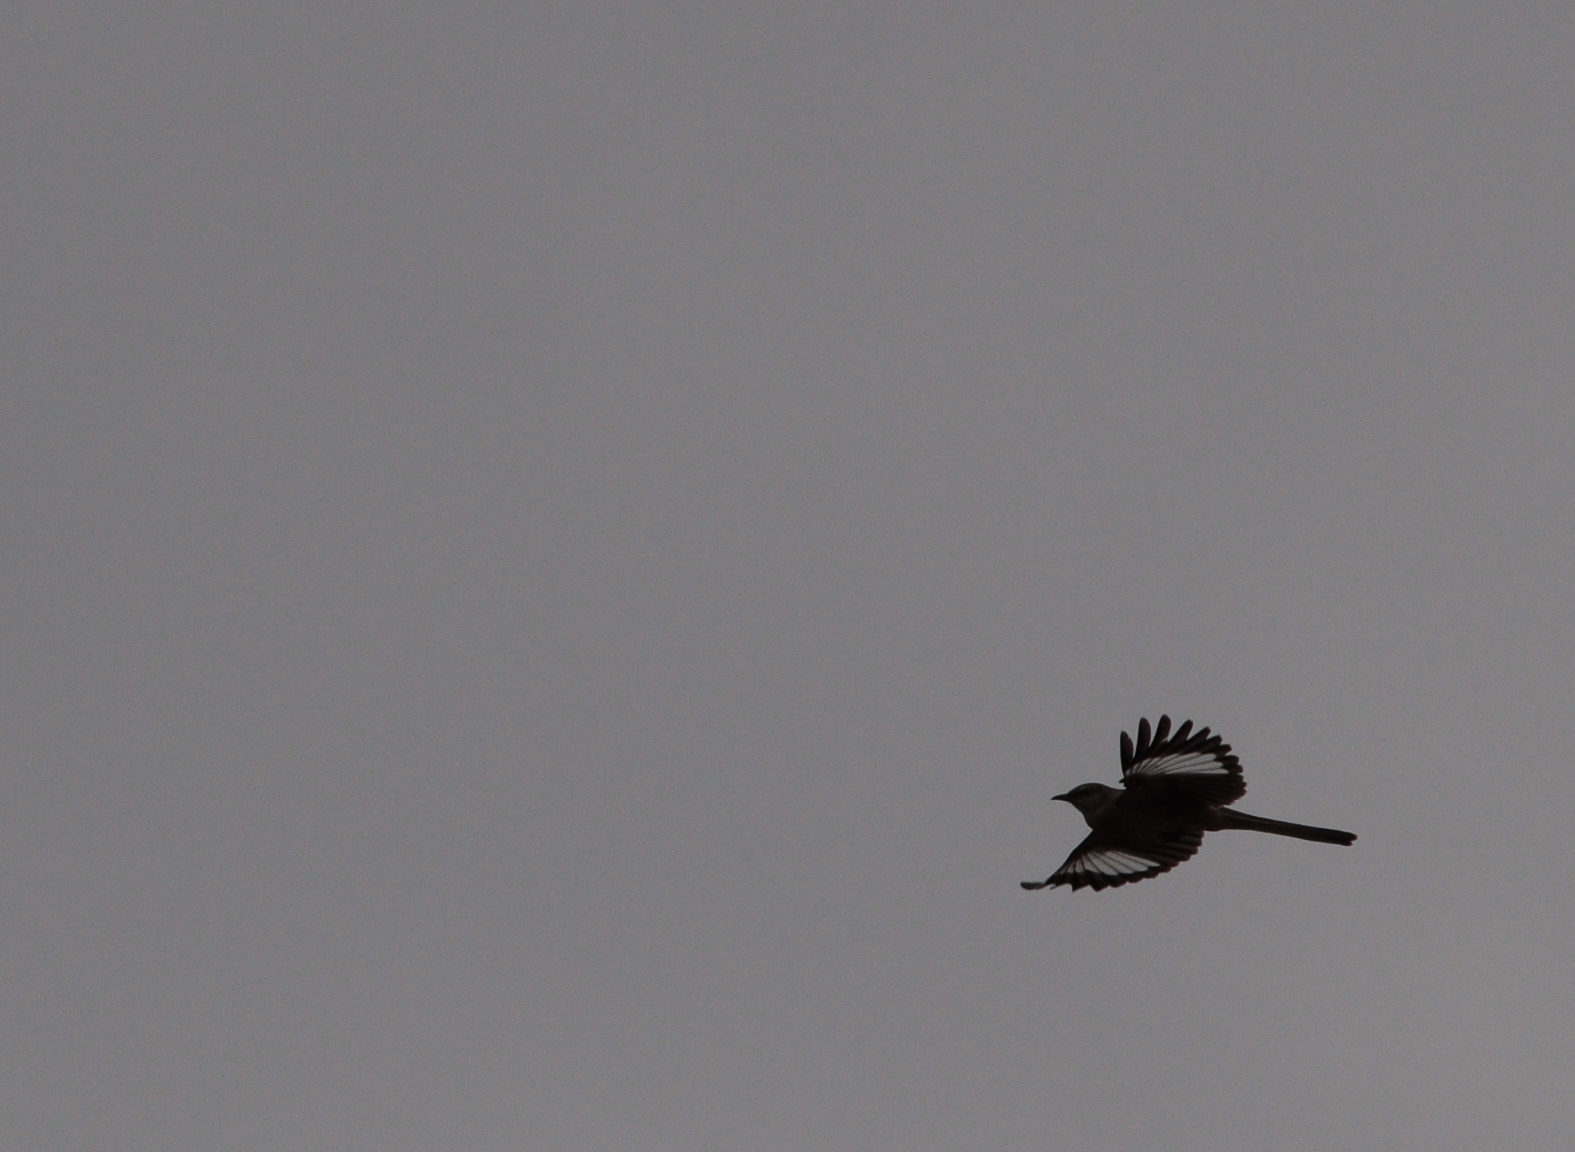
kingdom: Animalia
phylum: Chordata
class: Aves
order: Passeriformes
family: Mimidae
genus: Mimus
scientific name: Mimus polyglottos
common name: Northern mockingbird
